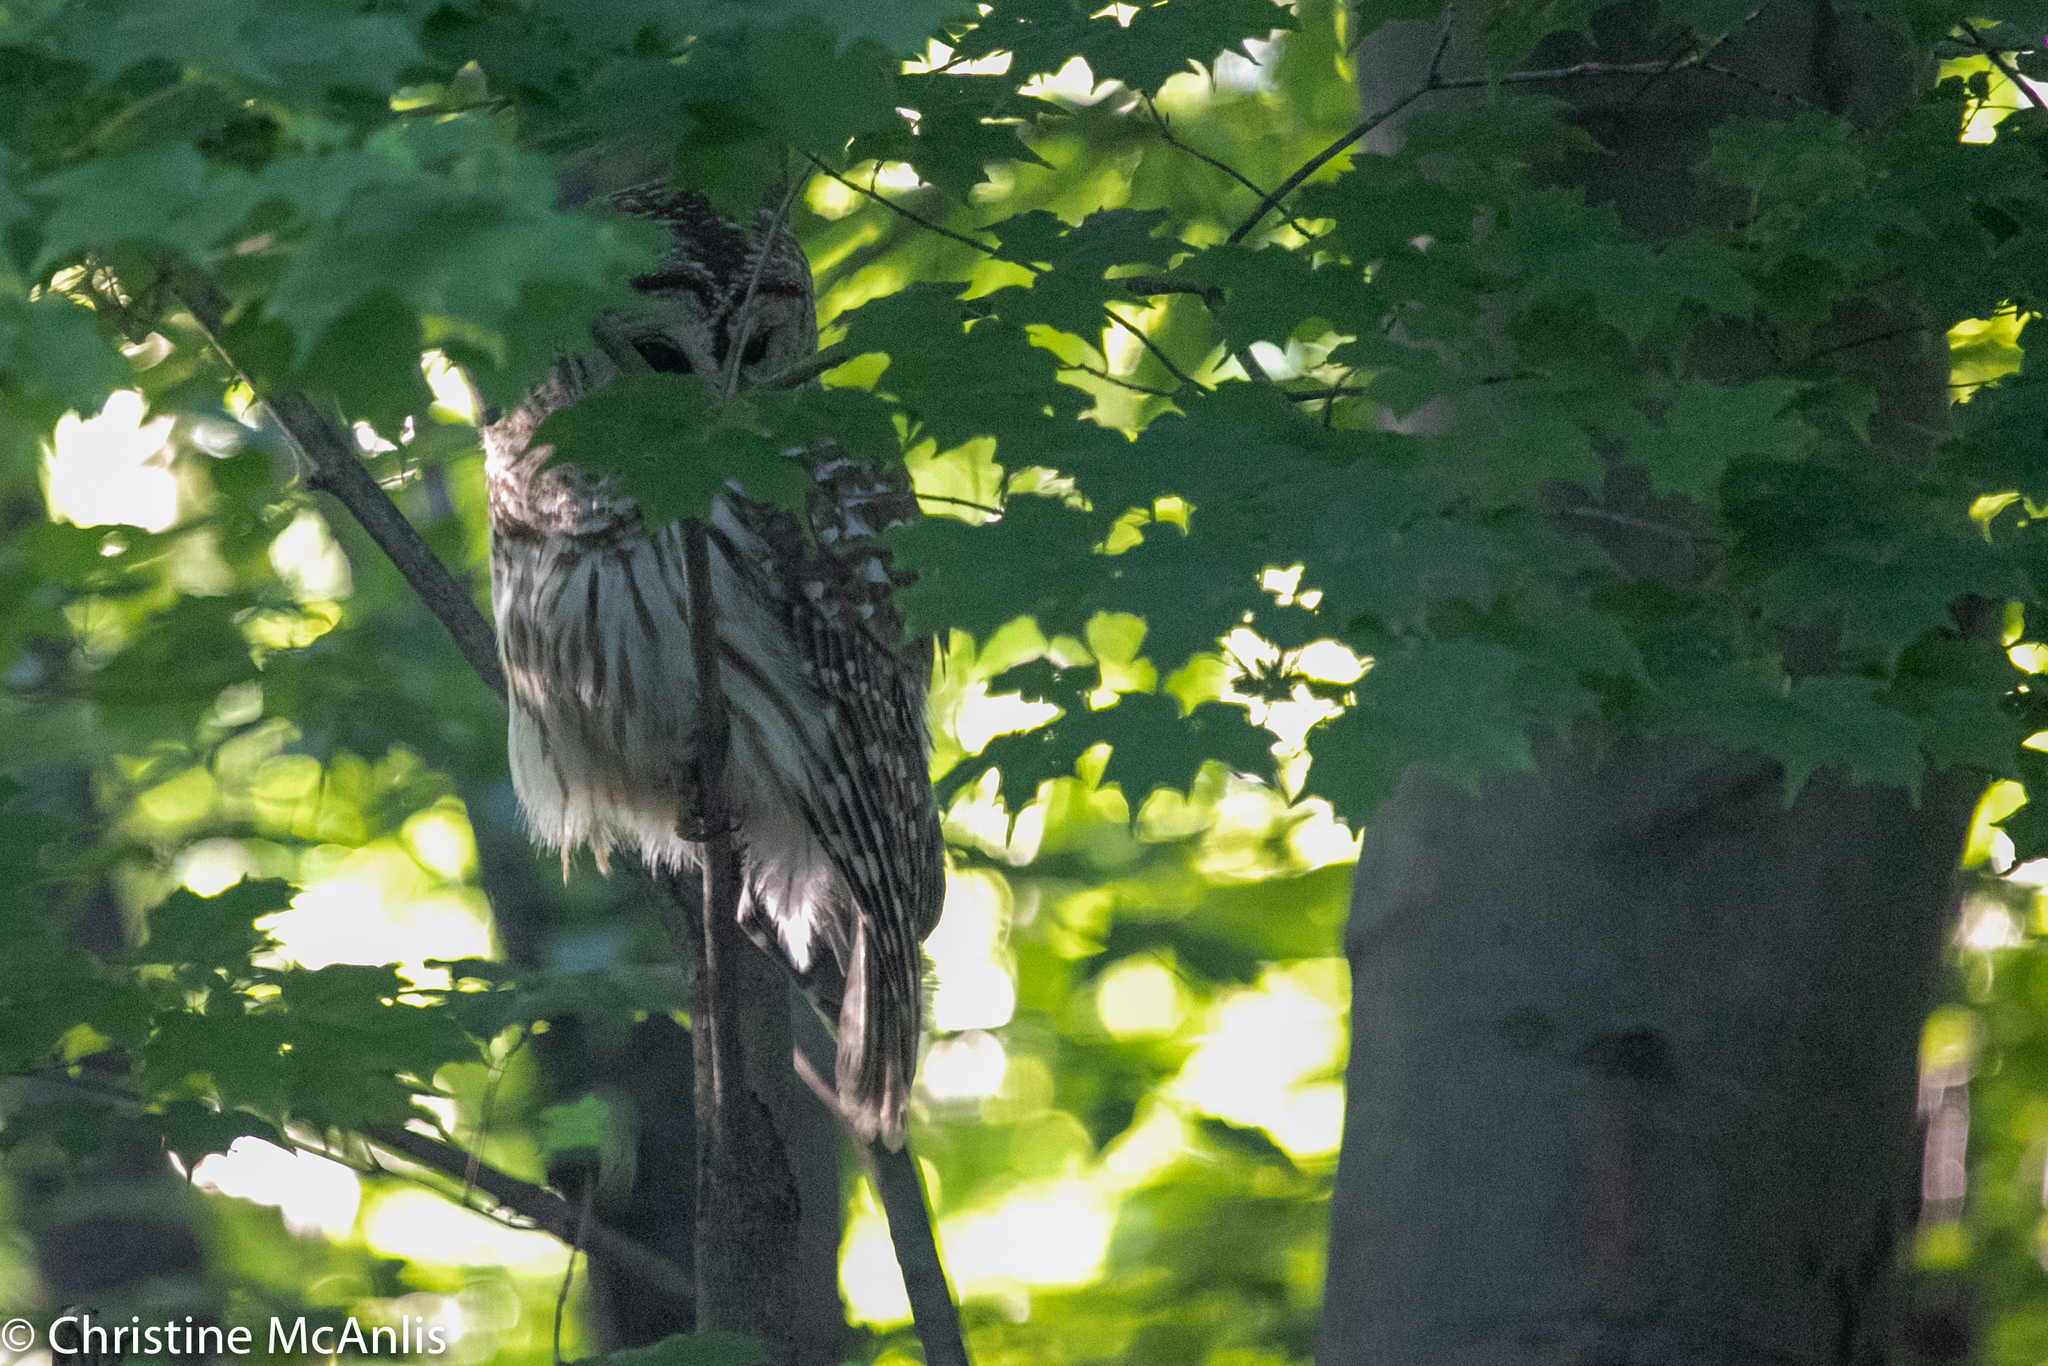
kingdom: Animalia
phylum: Chordata
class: Aves
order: Strigiformes
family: Strigidae
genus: Strix
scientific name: Strix varia
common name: Barred owl
